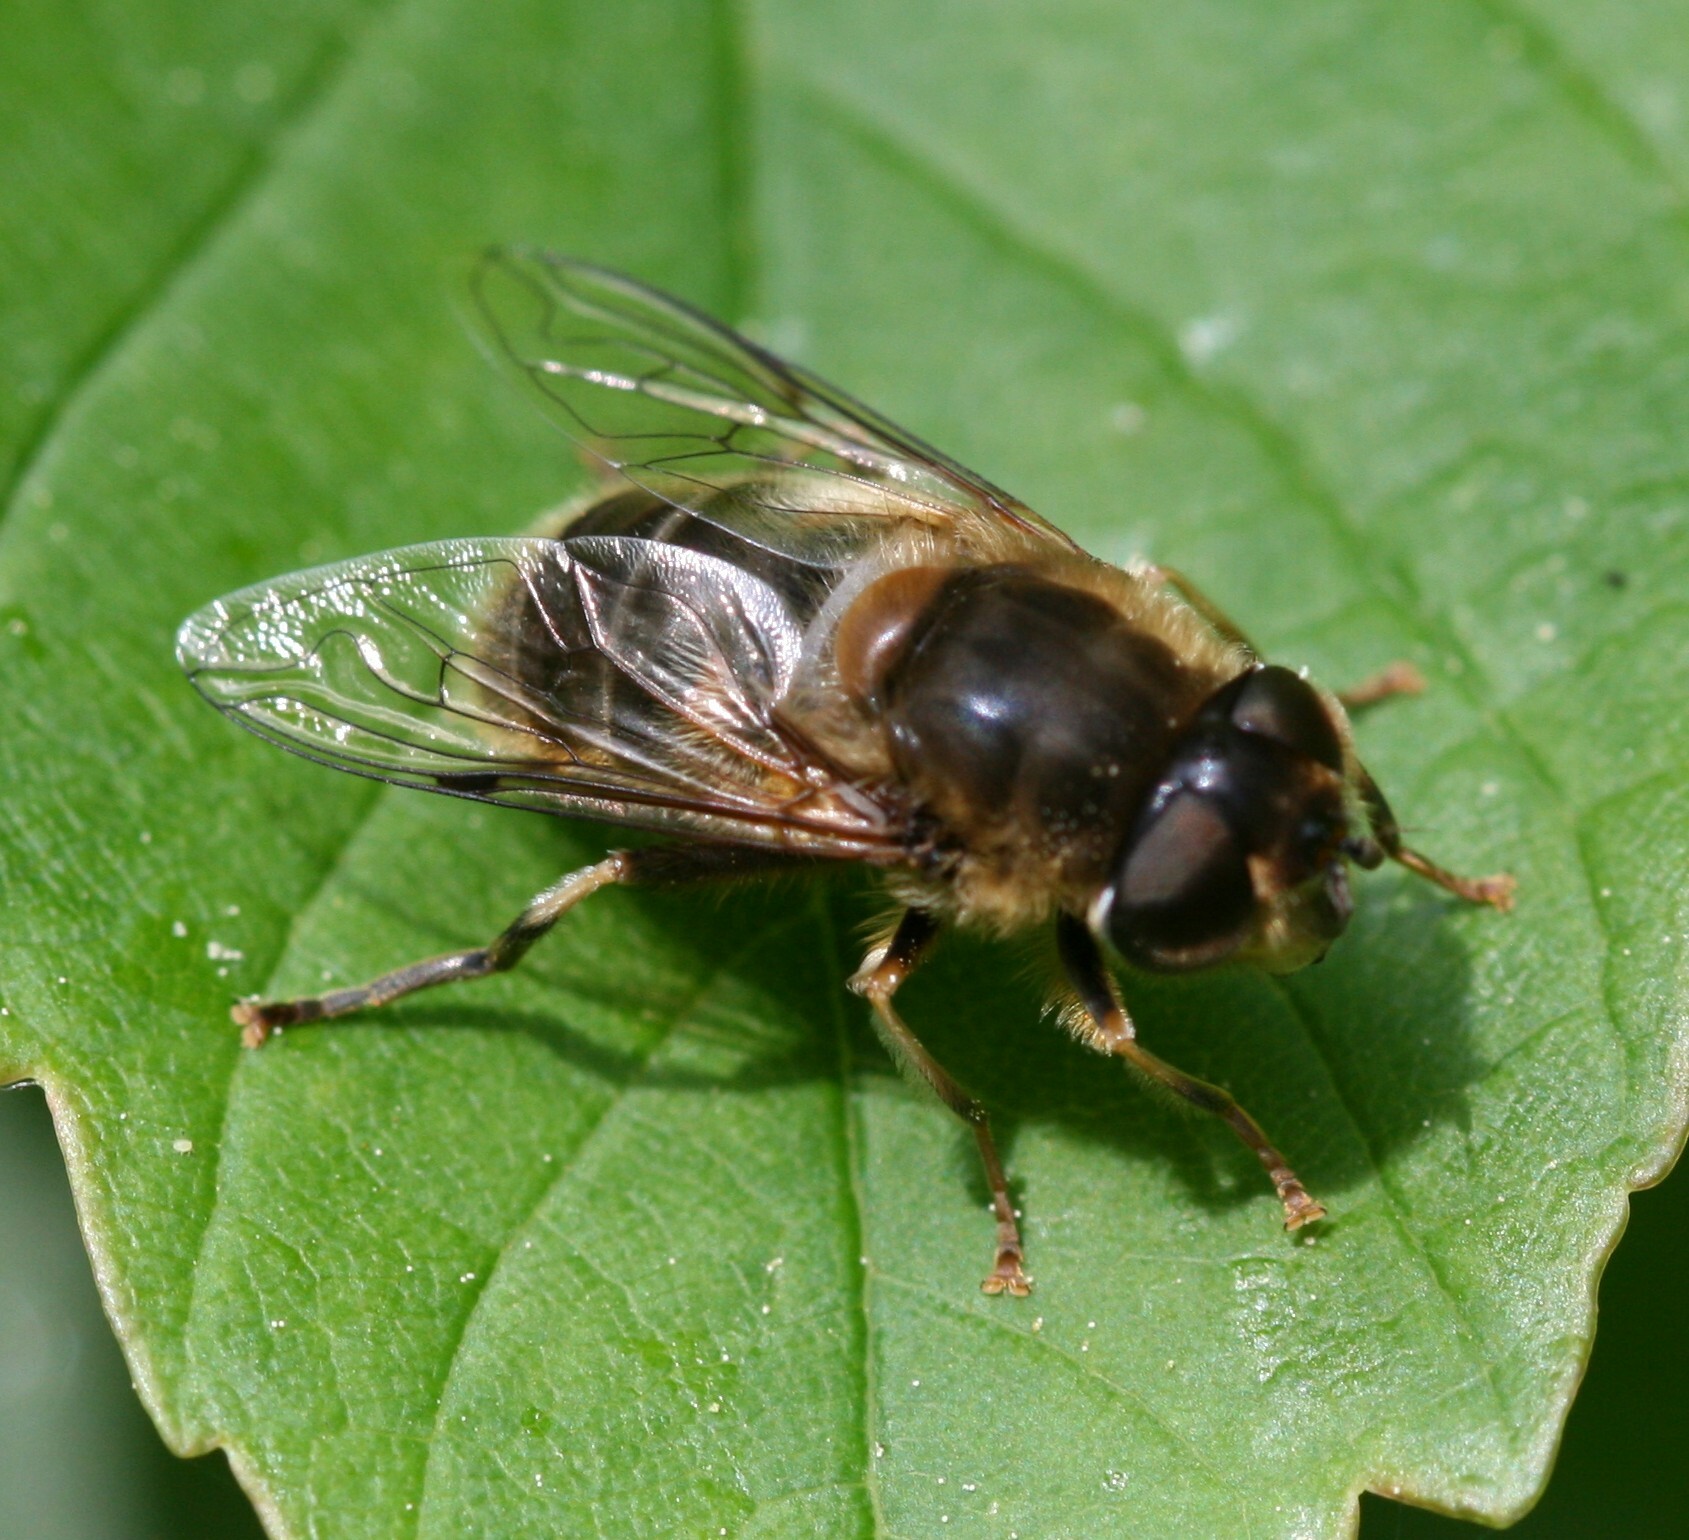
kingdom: Animalia
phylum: Arthropoda
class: Insecta
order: Diptera
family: Syrphidae
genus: Eristalis
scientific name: Eristalis pertinax
